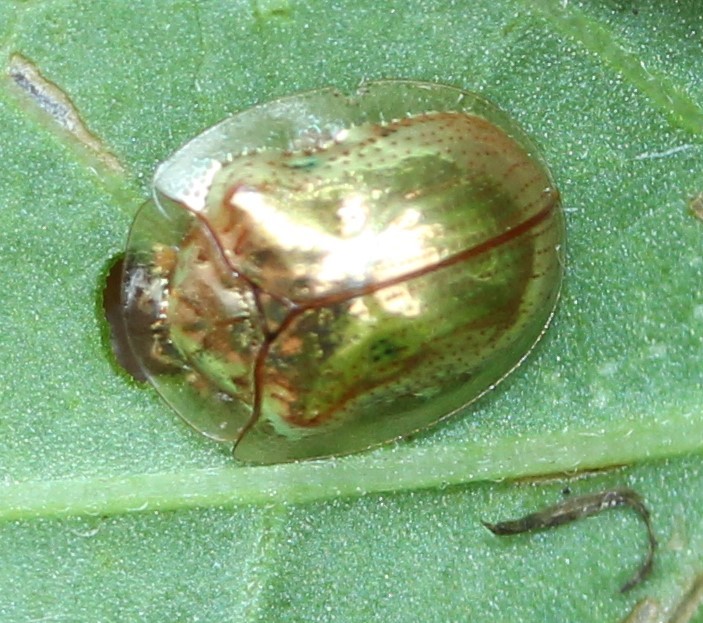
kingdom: Animalia
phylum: Arthropoda
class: Insecta
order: Coleoptera
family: Chrysomelidae
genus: Charidotella
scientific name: Charidotella sexpunctata
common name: Golden tortoise beetle
